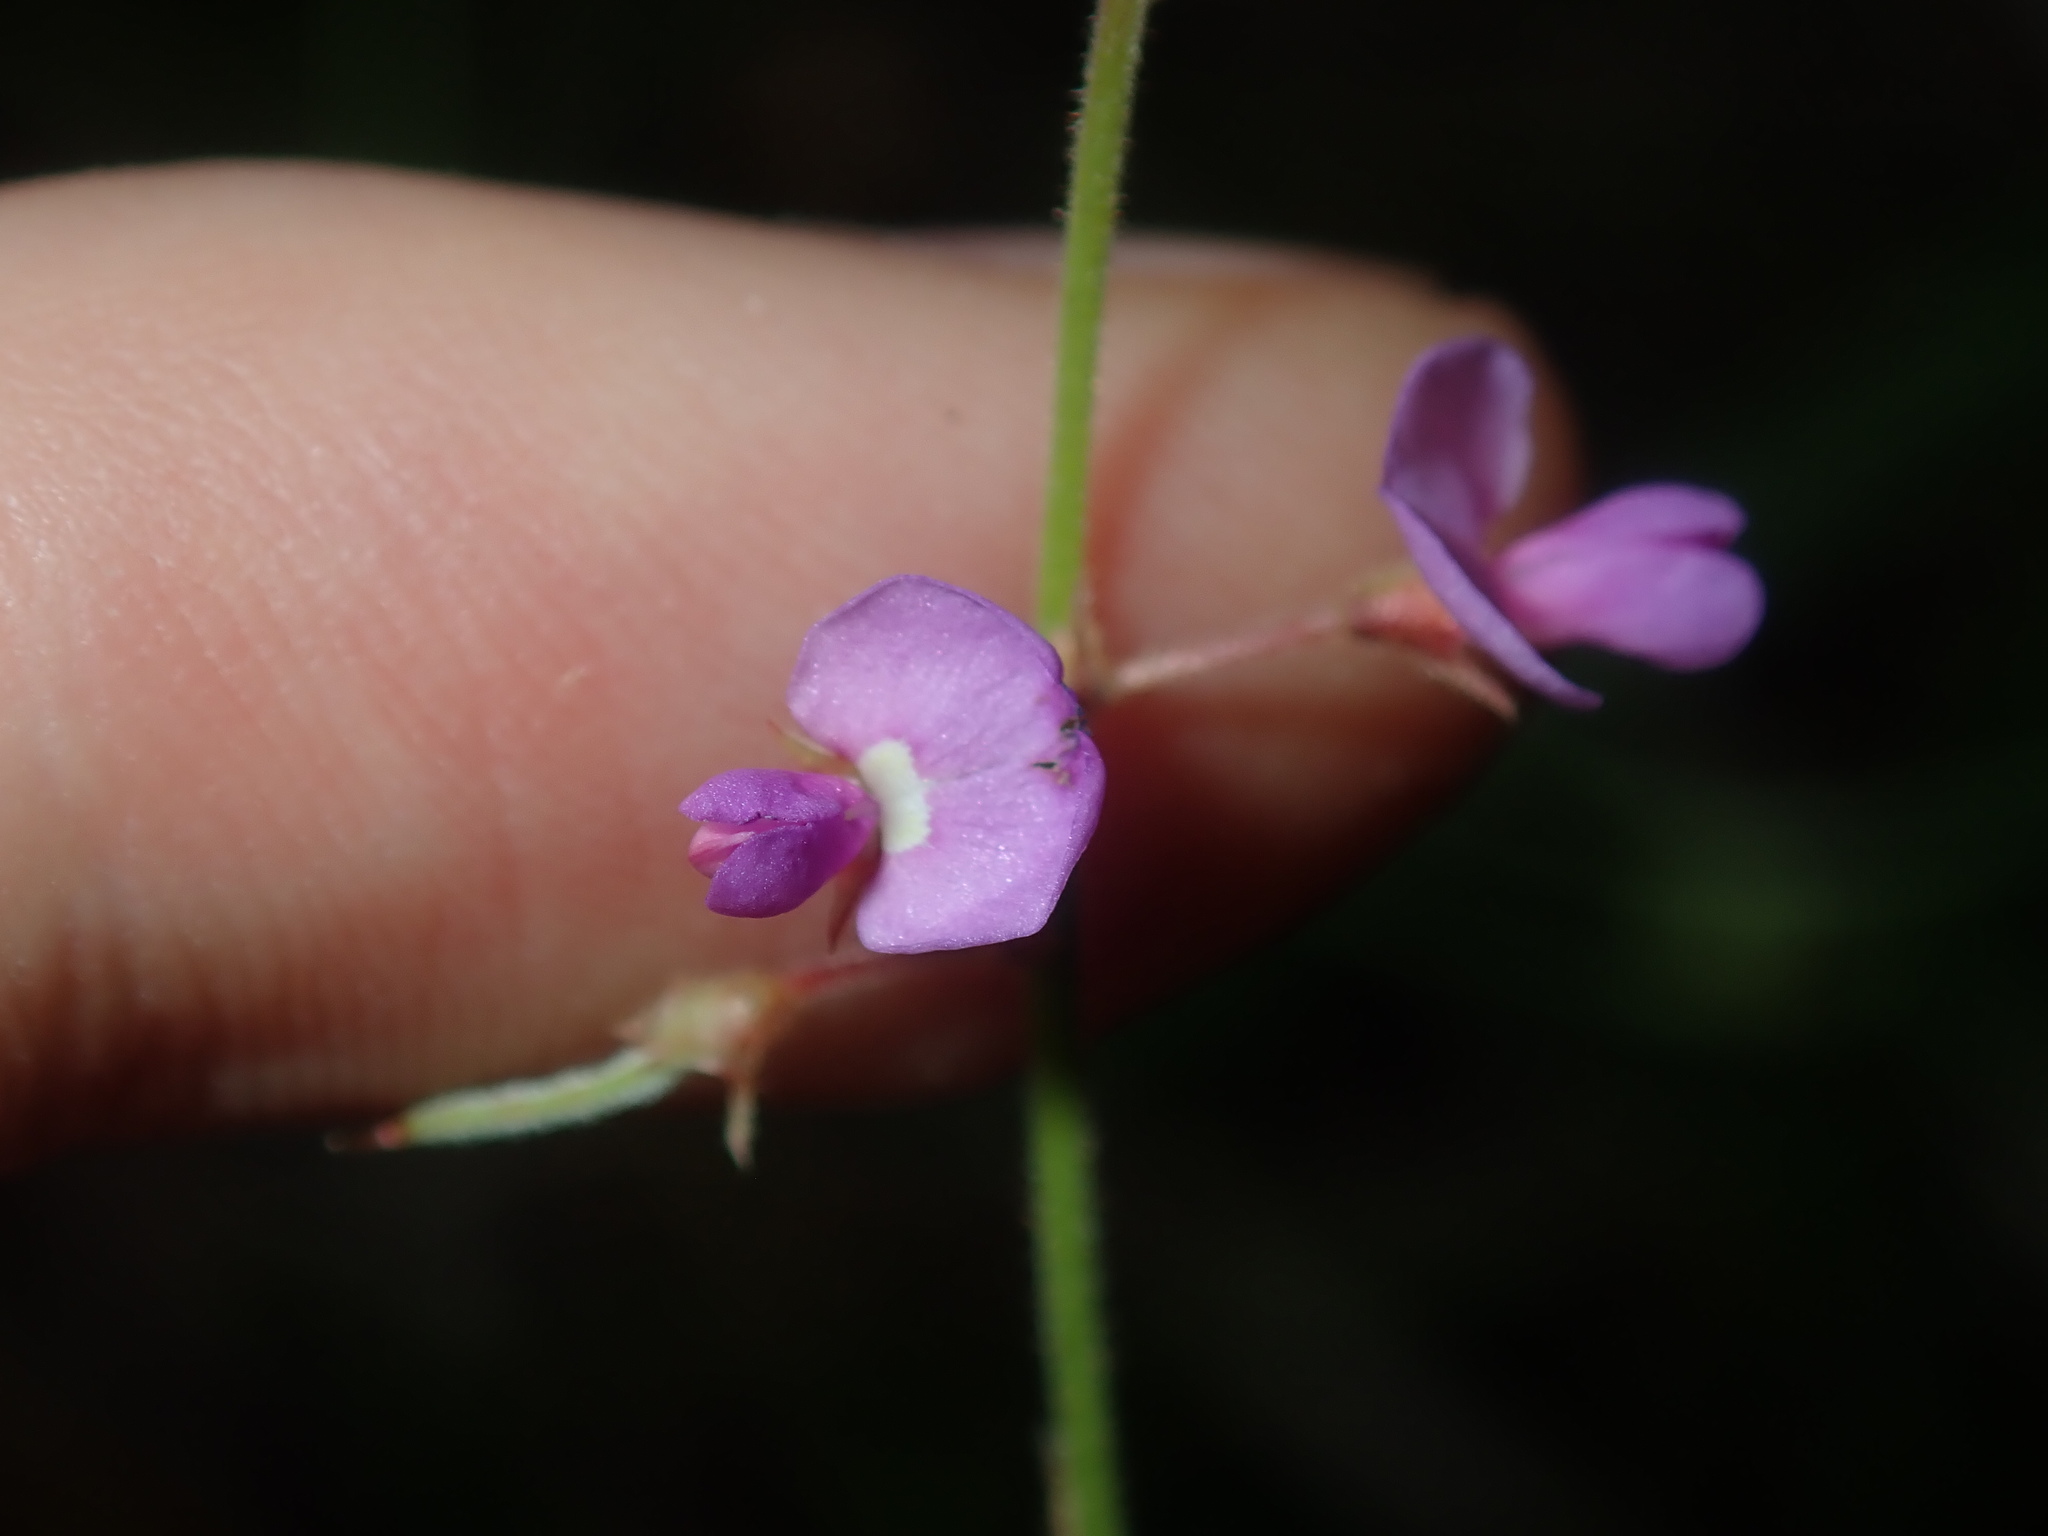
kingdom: Plantae
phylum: Tracheophyta
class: Magnoliopsida
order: Fabales
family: Fabaceae
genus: Maekawaea
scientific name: Maekawaea rhytidophylla
